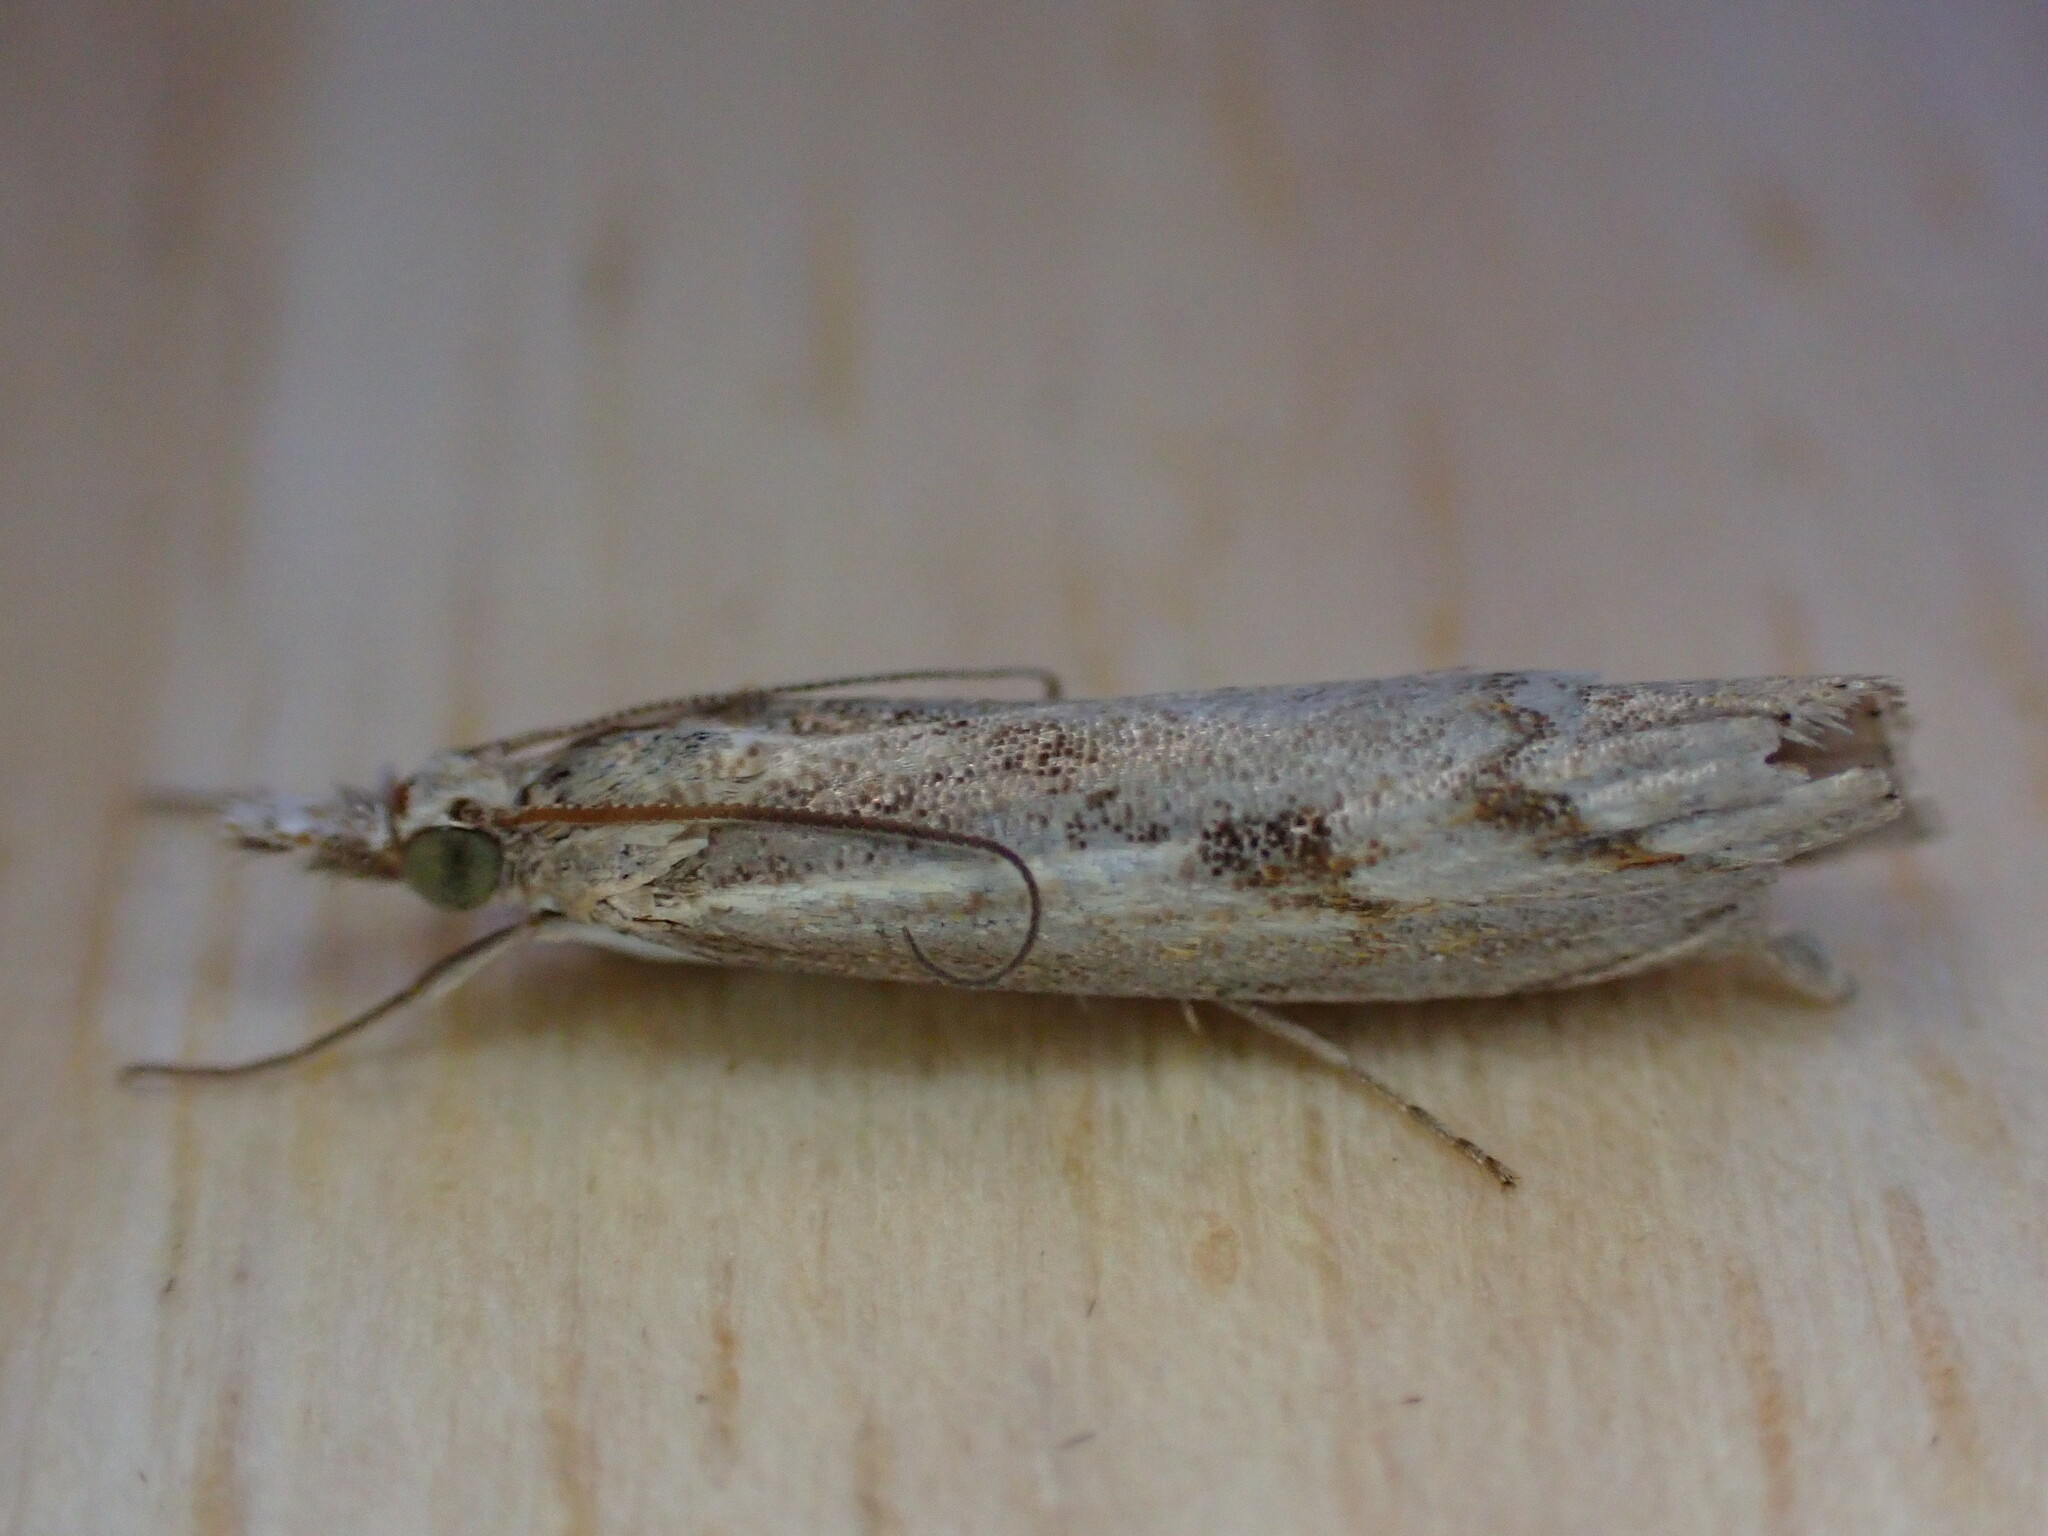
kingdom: Animalia
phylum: Arthropoda
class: Insecta
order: Lepidoptera
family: Crambidae
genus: Agriphila
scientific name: Agriphila geniculea
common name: Elbow-stripe grass-veneer
